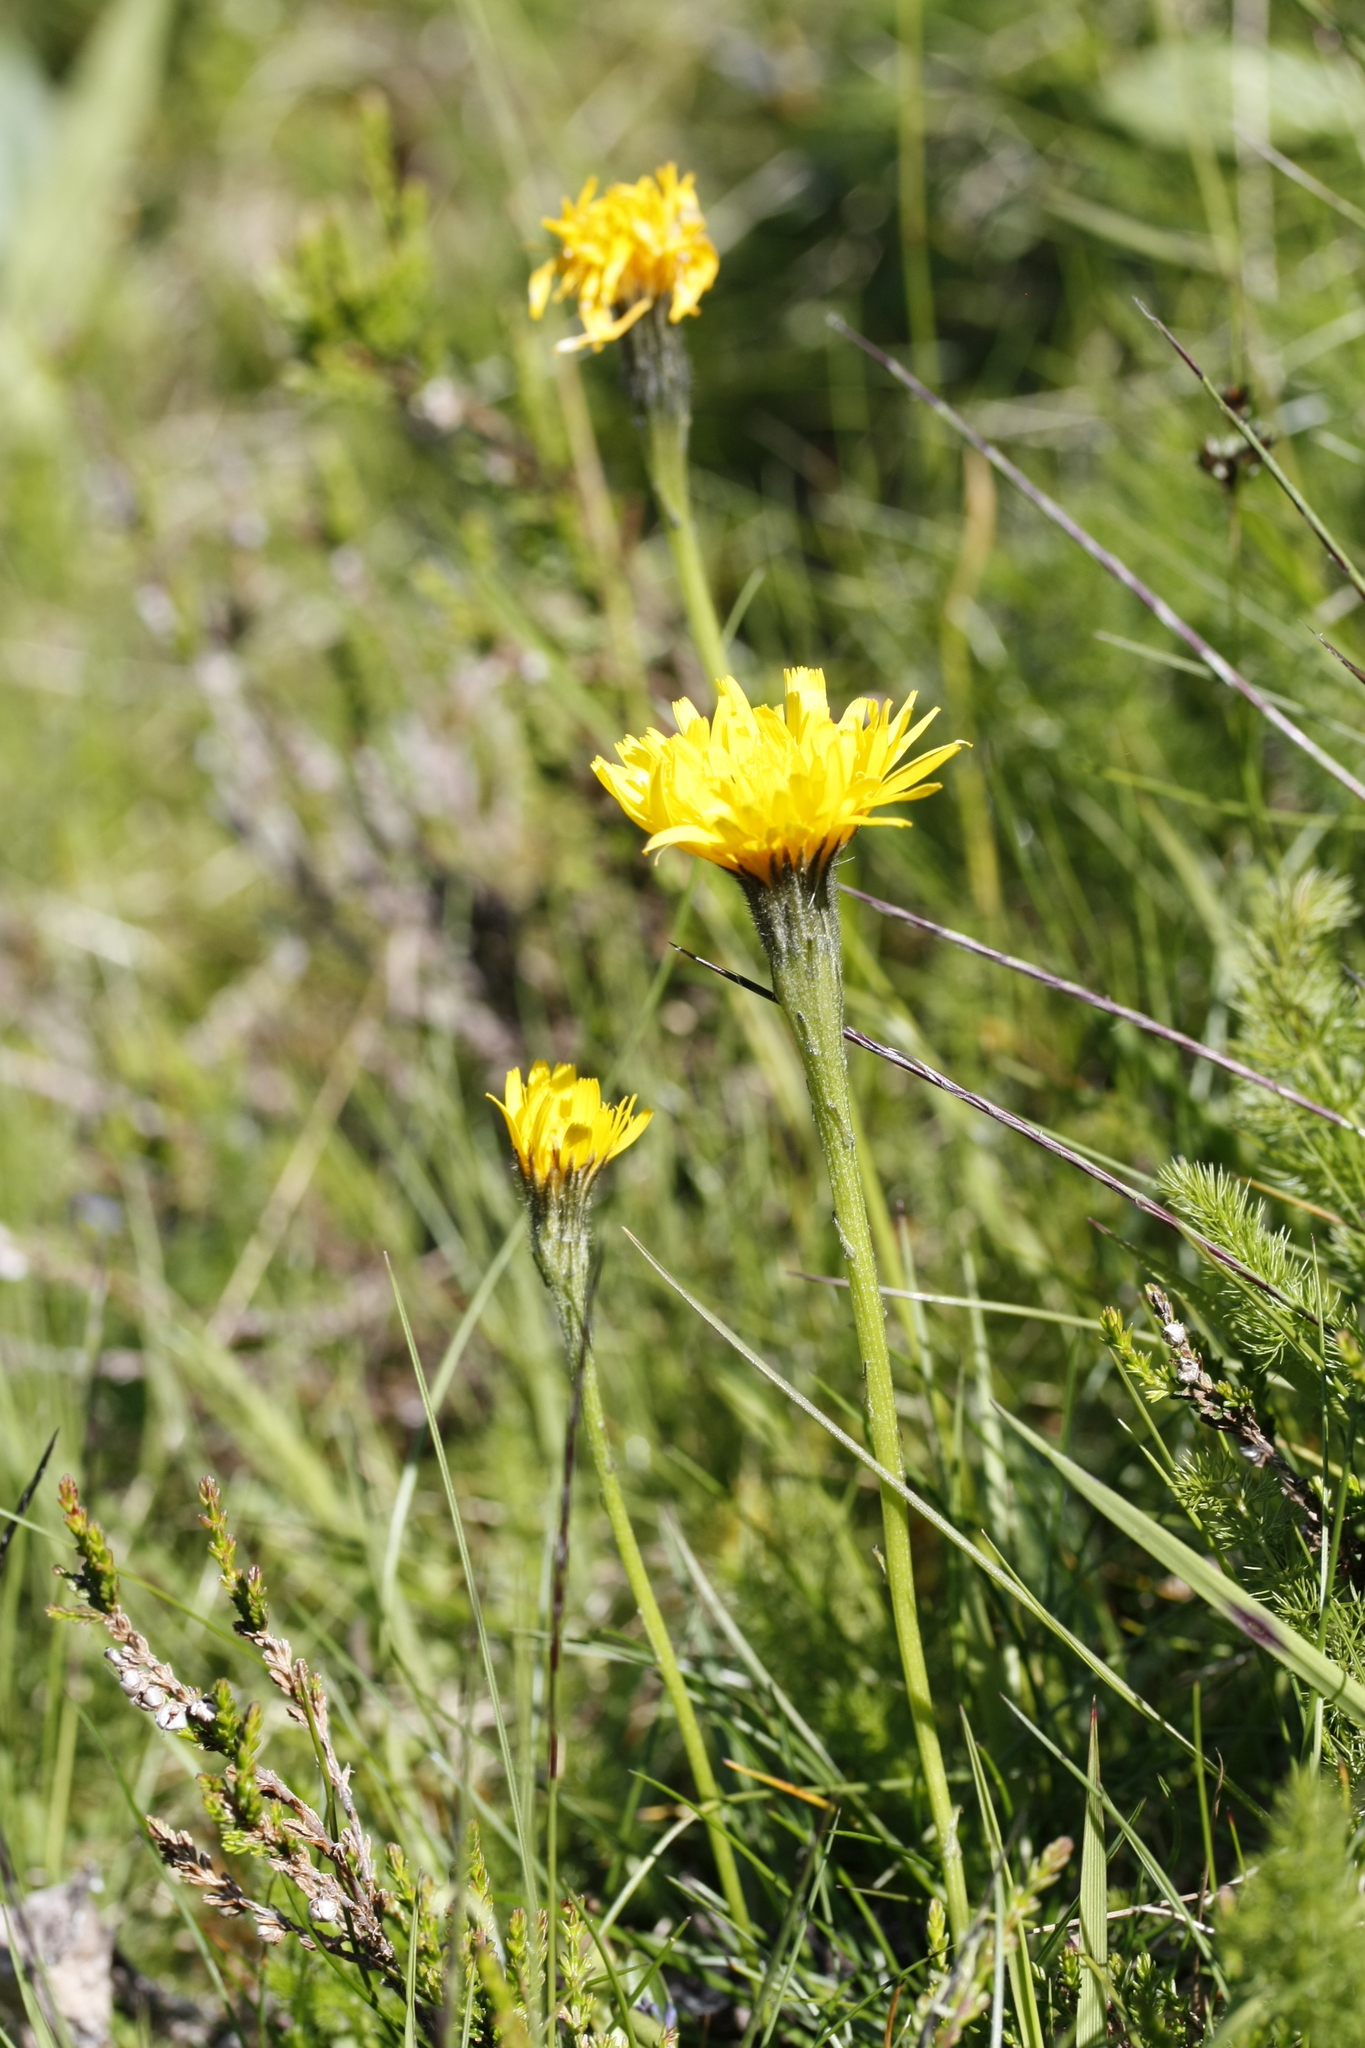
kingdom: Plantae
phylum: Tracheophyta
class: Magnoliopsida
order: Asterales
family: Asteraceae
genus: Scorzoneroides
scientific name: Scorzoneroides helvetica
